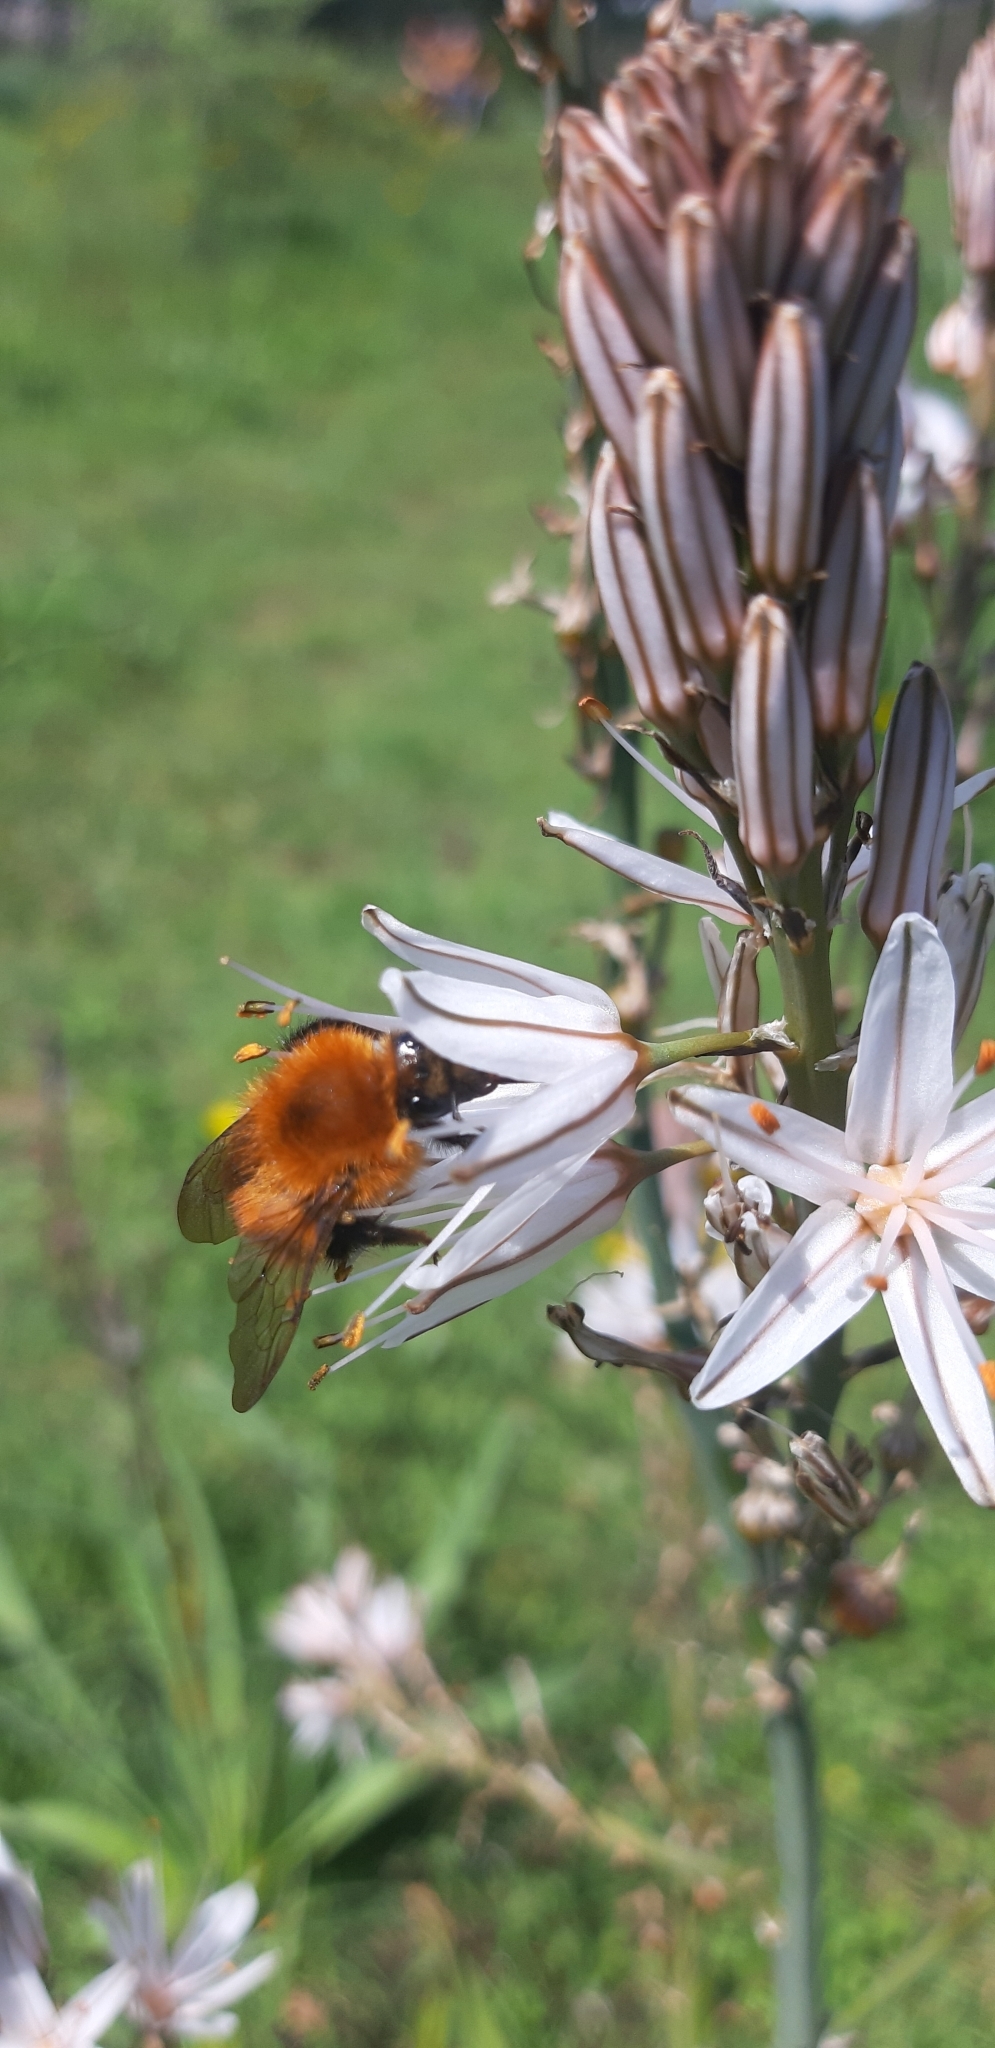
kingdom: Animalia
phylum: Arthropoda
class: Insecta
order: Hymenoptera
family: Apidae
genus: Bombus
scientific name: Bombus pascuorum
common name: Common carder bee
